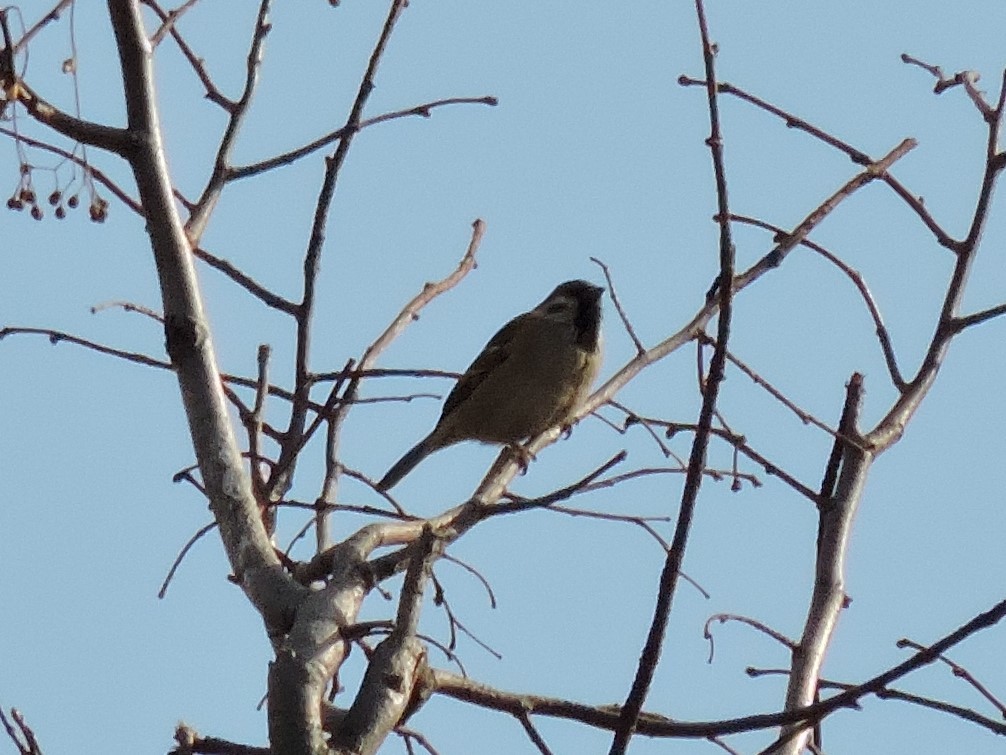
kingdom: Animalia
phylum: Chordata
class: Aves
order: Passeriformes
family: Passeridae
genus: Passer
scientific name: Passer montanus
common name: Eurasian tree sparrow
